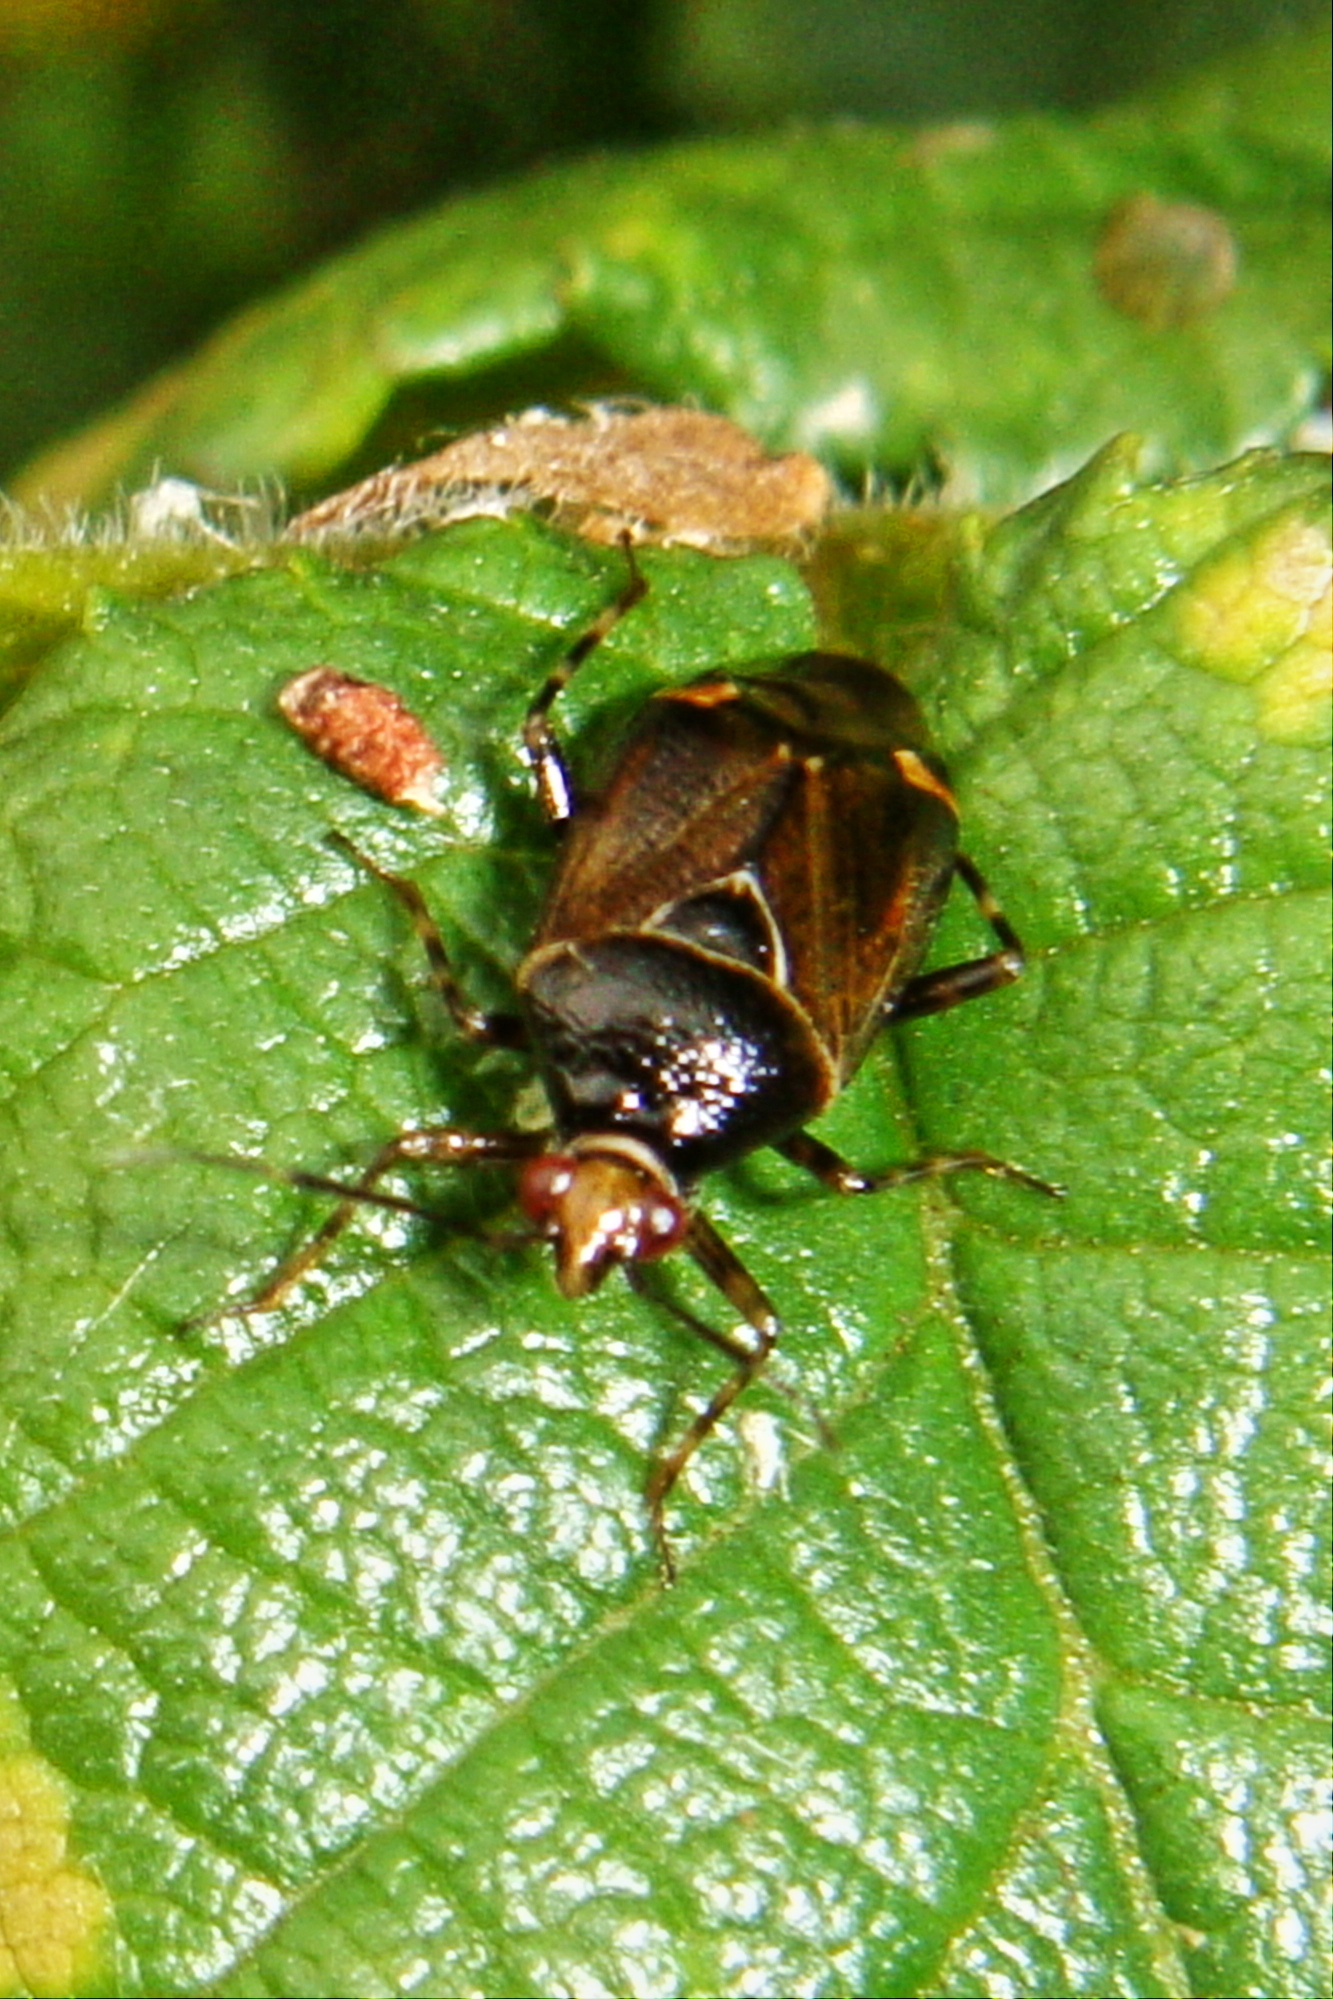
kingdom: Animalia
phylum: Arthropoda
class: Insecta
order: Hemiptera
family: Miridae
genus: Deraeocoris
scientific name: Deraeocoris flavilinea
